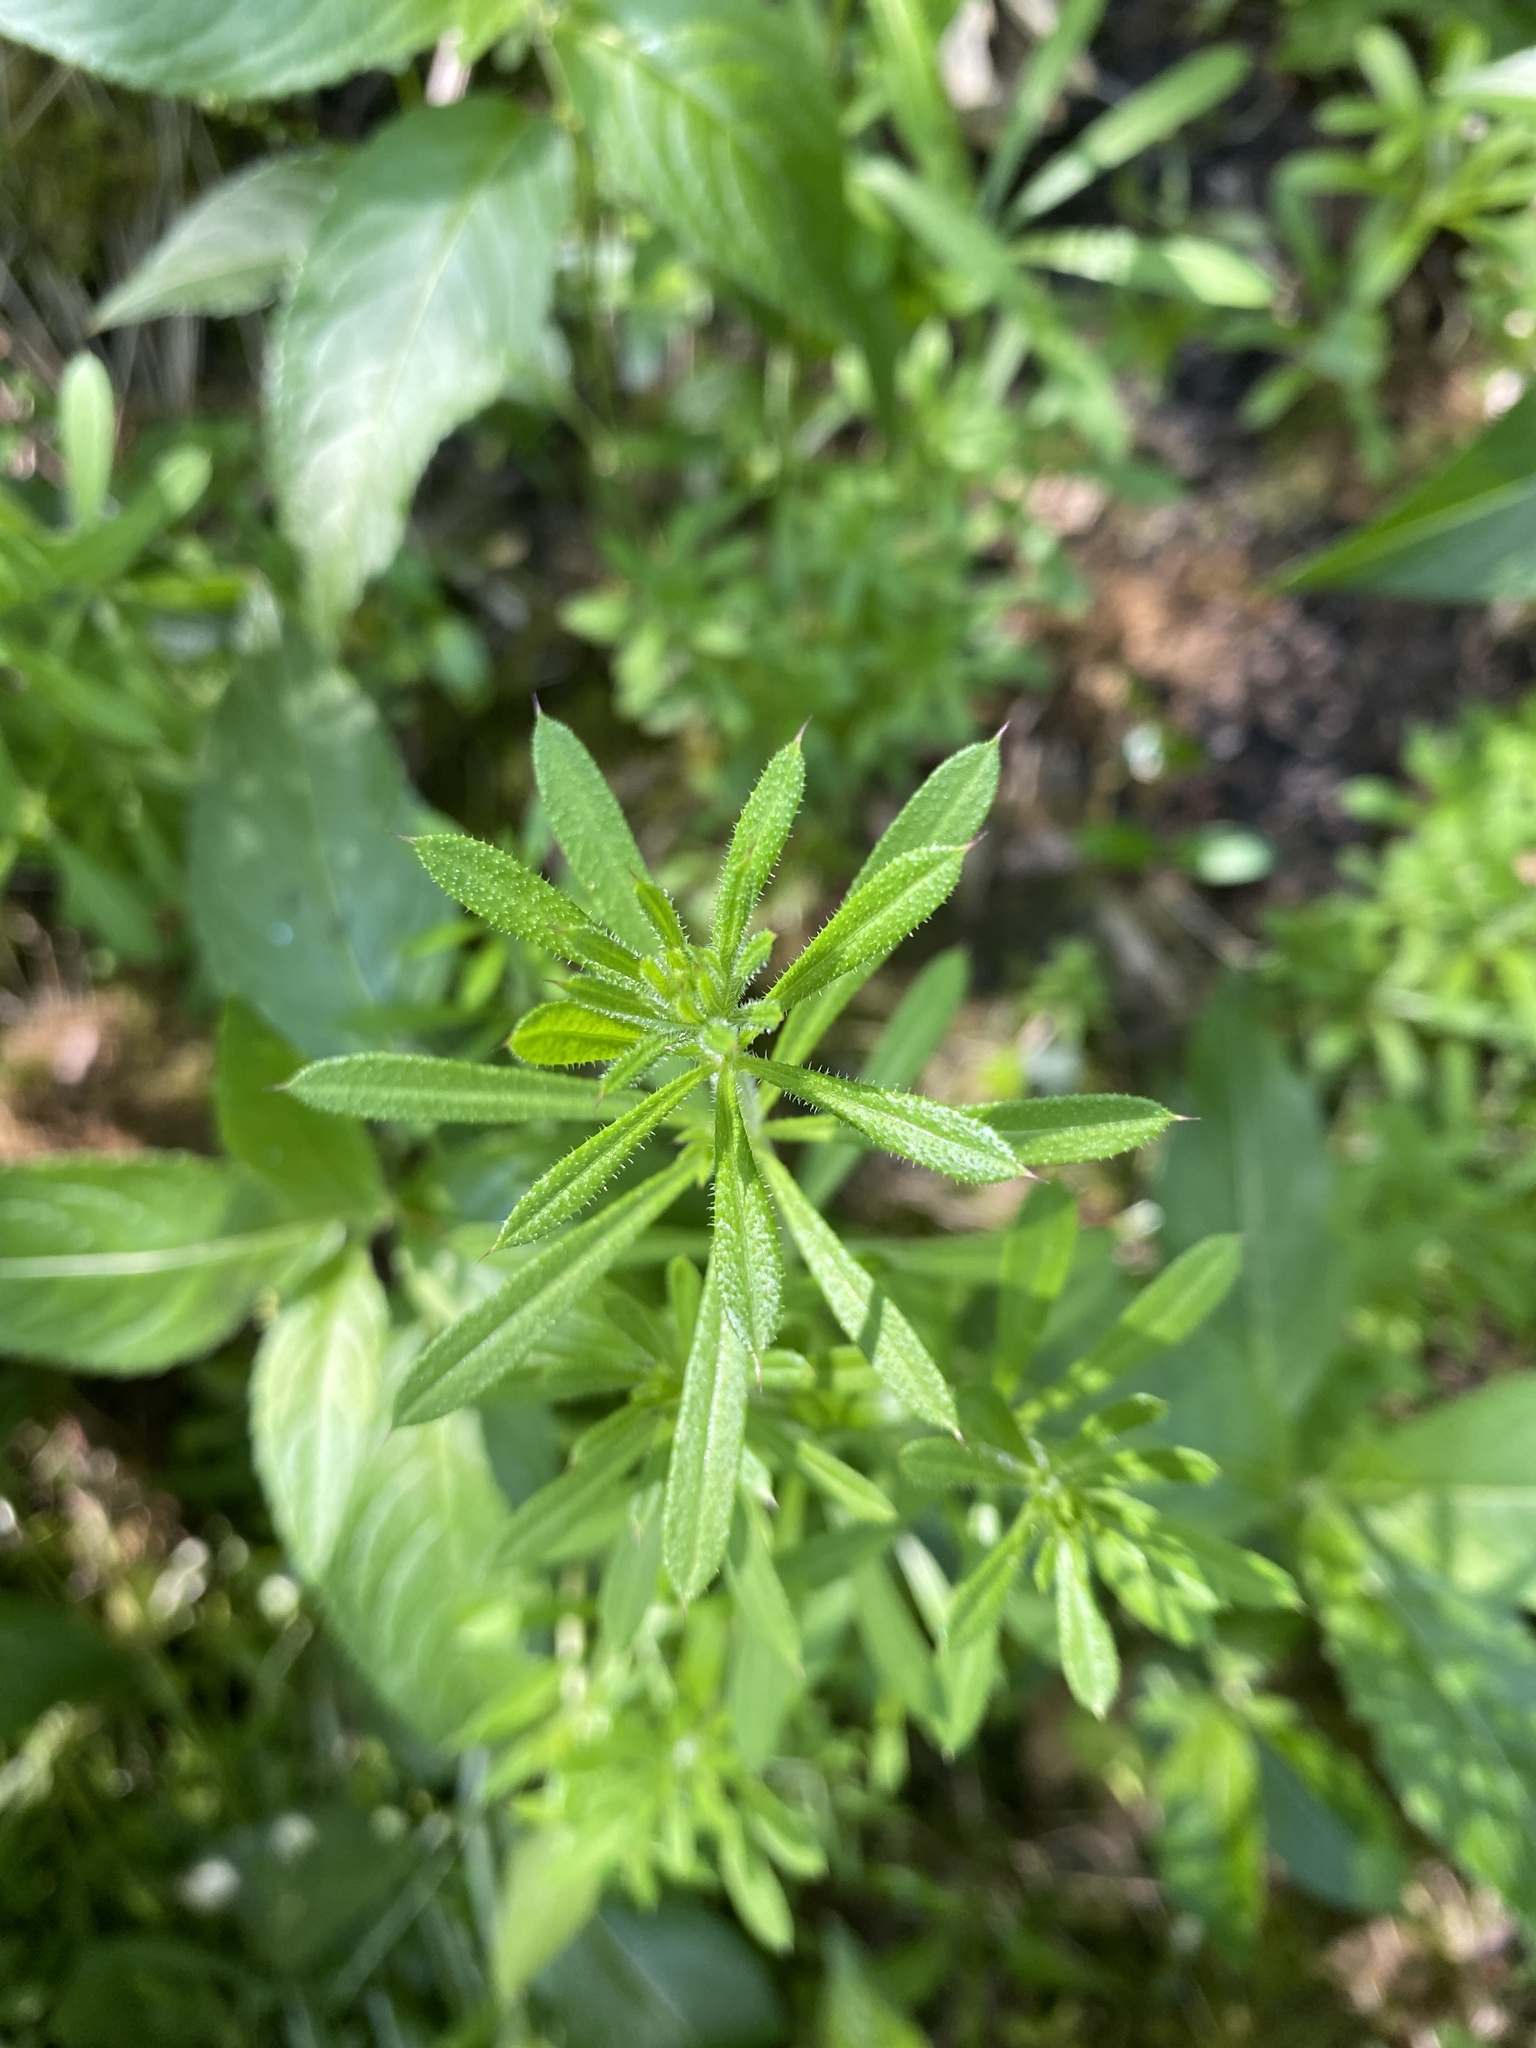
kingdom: Plantae
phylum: Tracheophyta
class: Magnoliopsida
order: Gentianales
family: Rubiaceae
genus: Galium
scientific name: Galium aparine
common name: Cleavers
